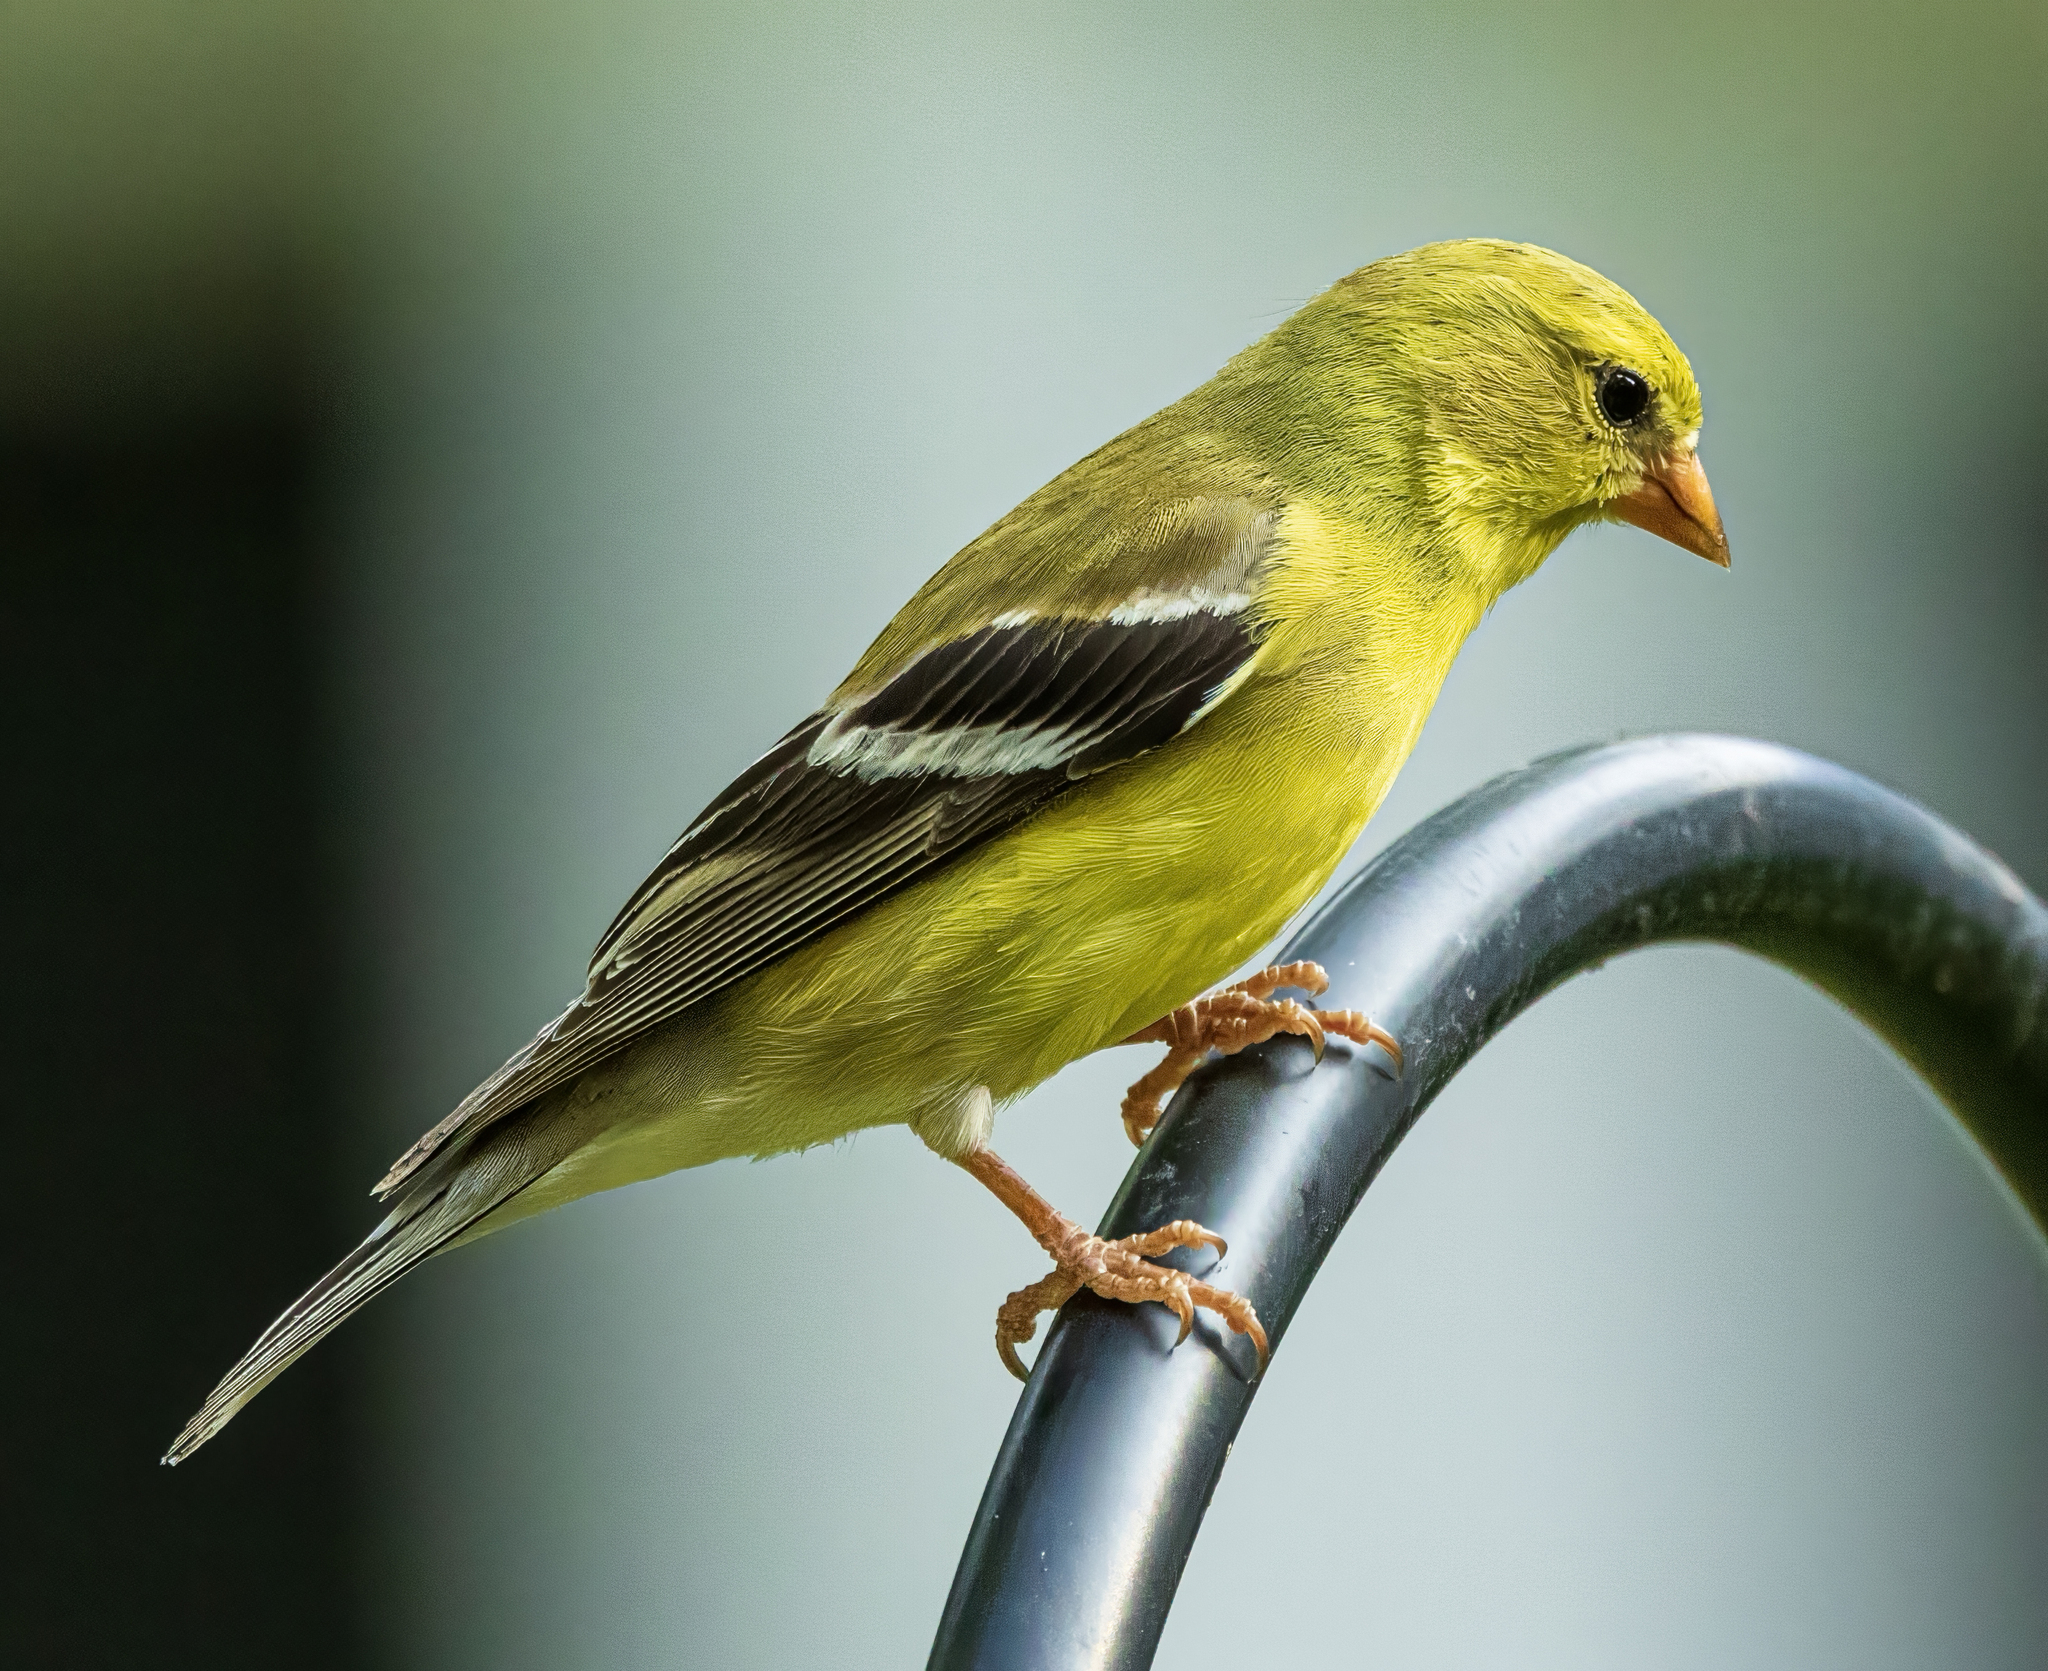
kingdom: Animalia
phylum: Chordata
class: Aves
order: Passeriformes
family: Fringillidae
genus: Spinus
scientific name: Spinus tristis
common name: American goldfinch
